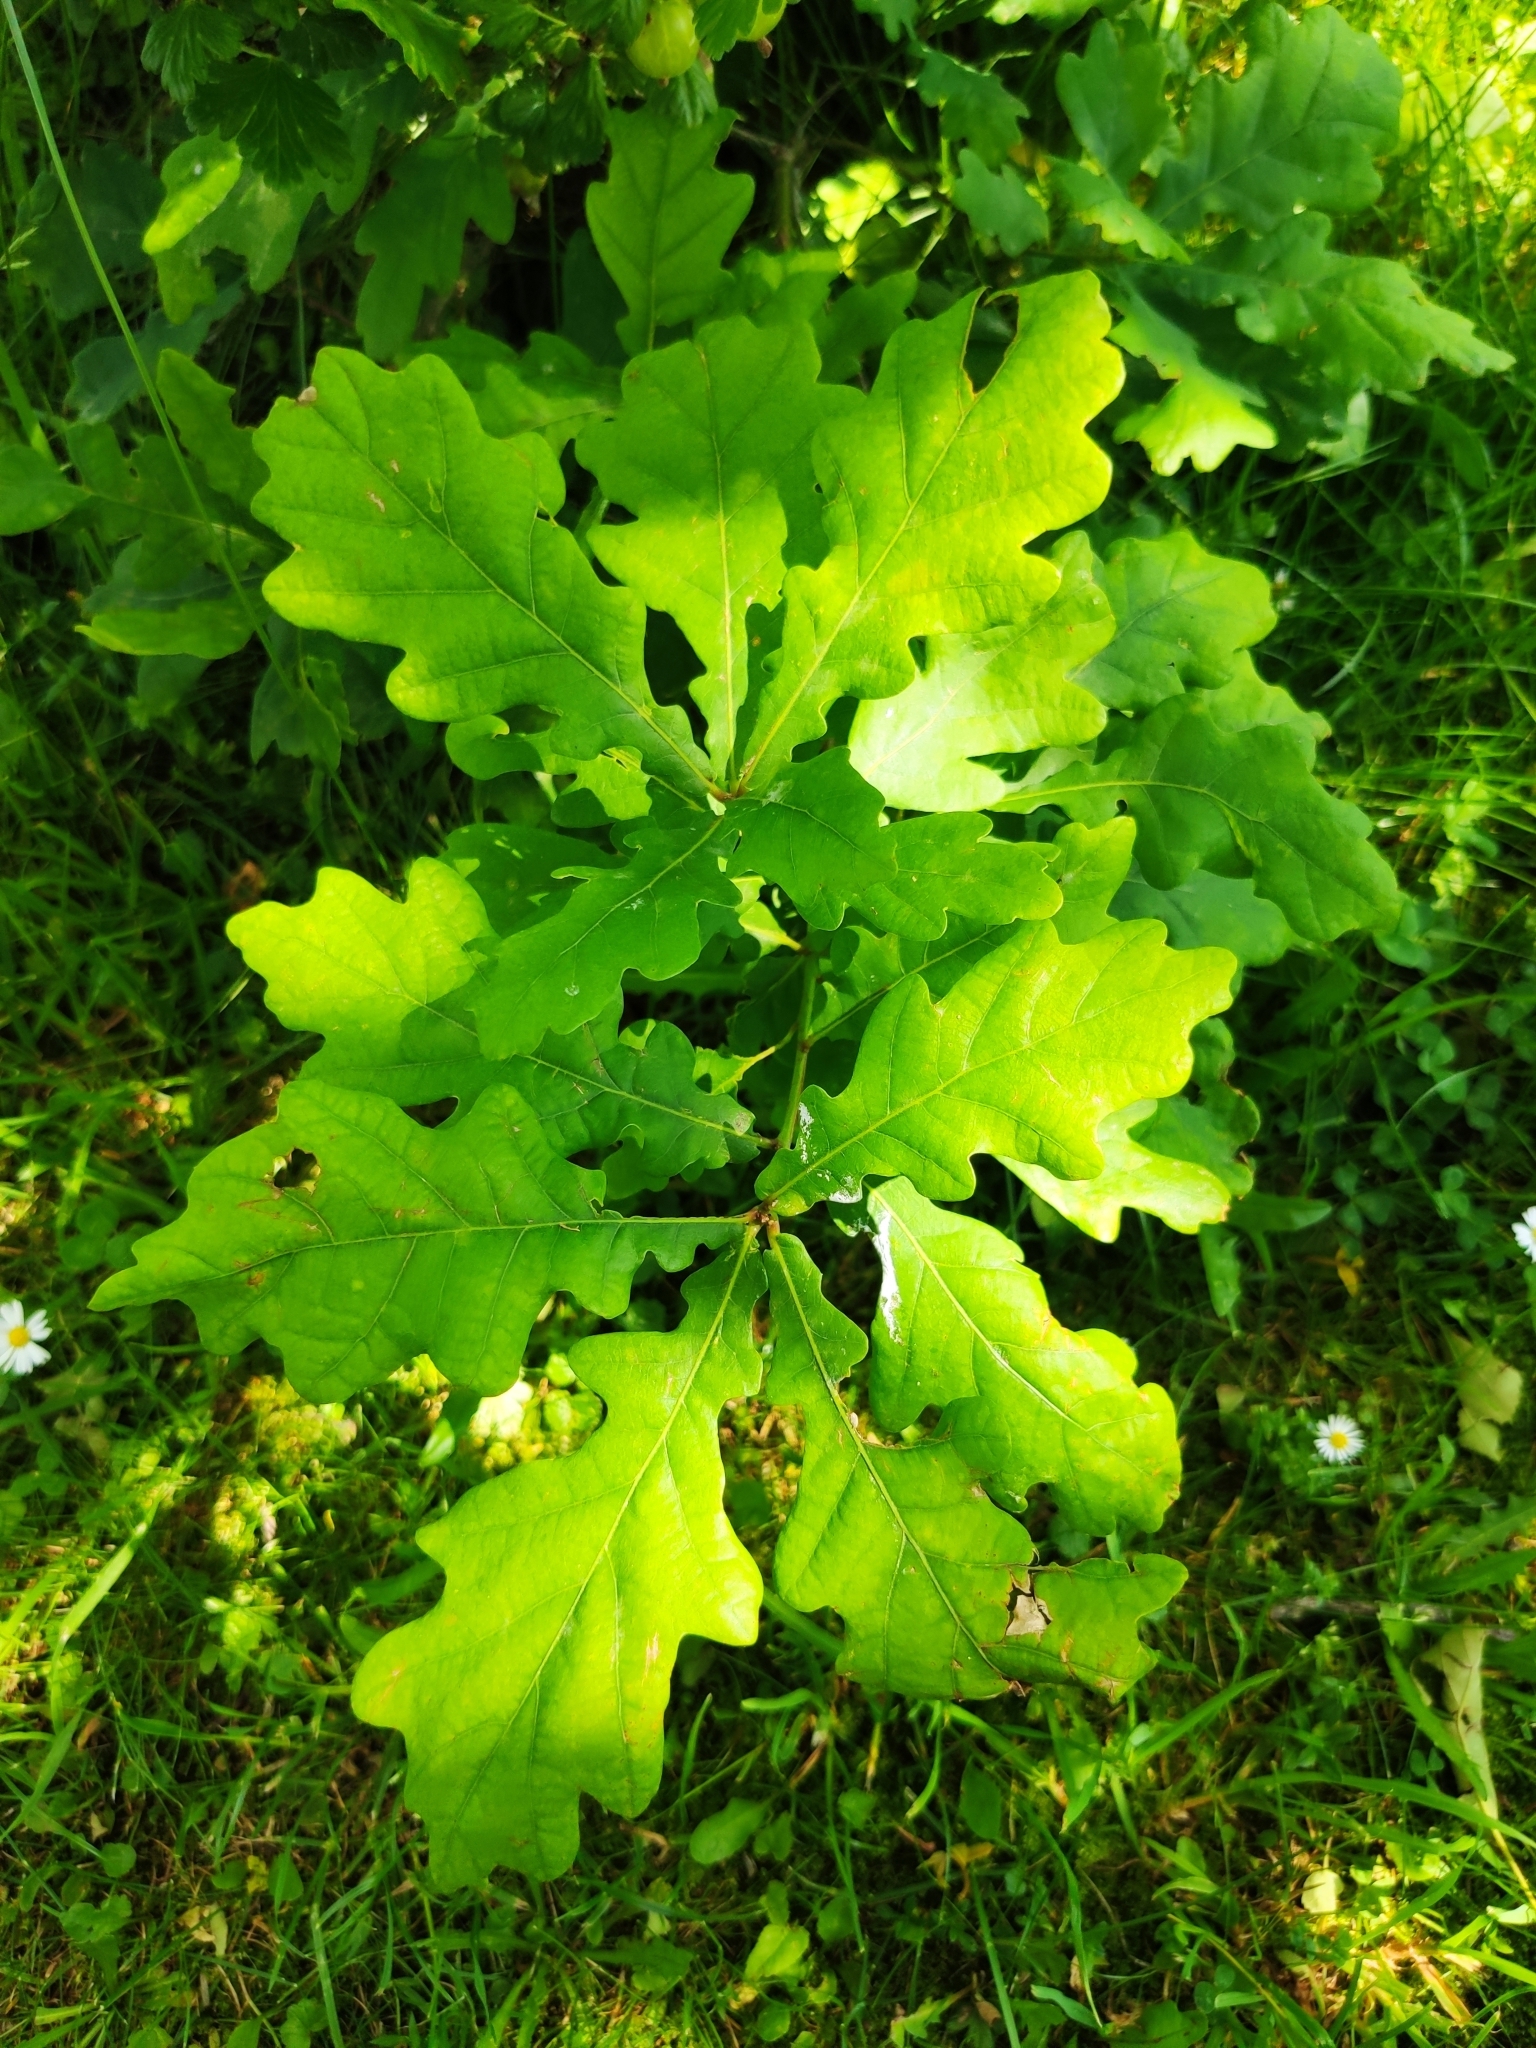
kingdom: Plantae
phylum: Tracheophyta
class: Magnoliopsida
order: Fagales
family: Fagaceae
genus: Quercus
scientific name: Quercus robur
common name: Pedunculate oak
